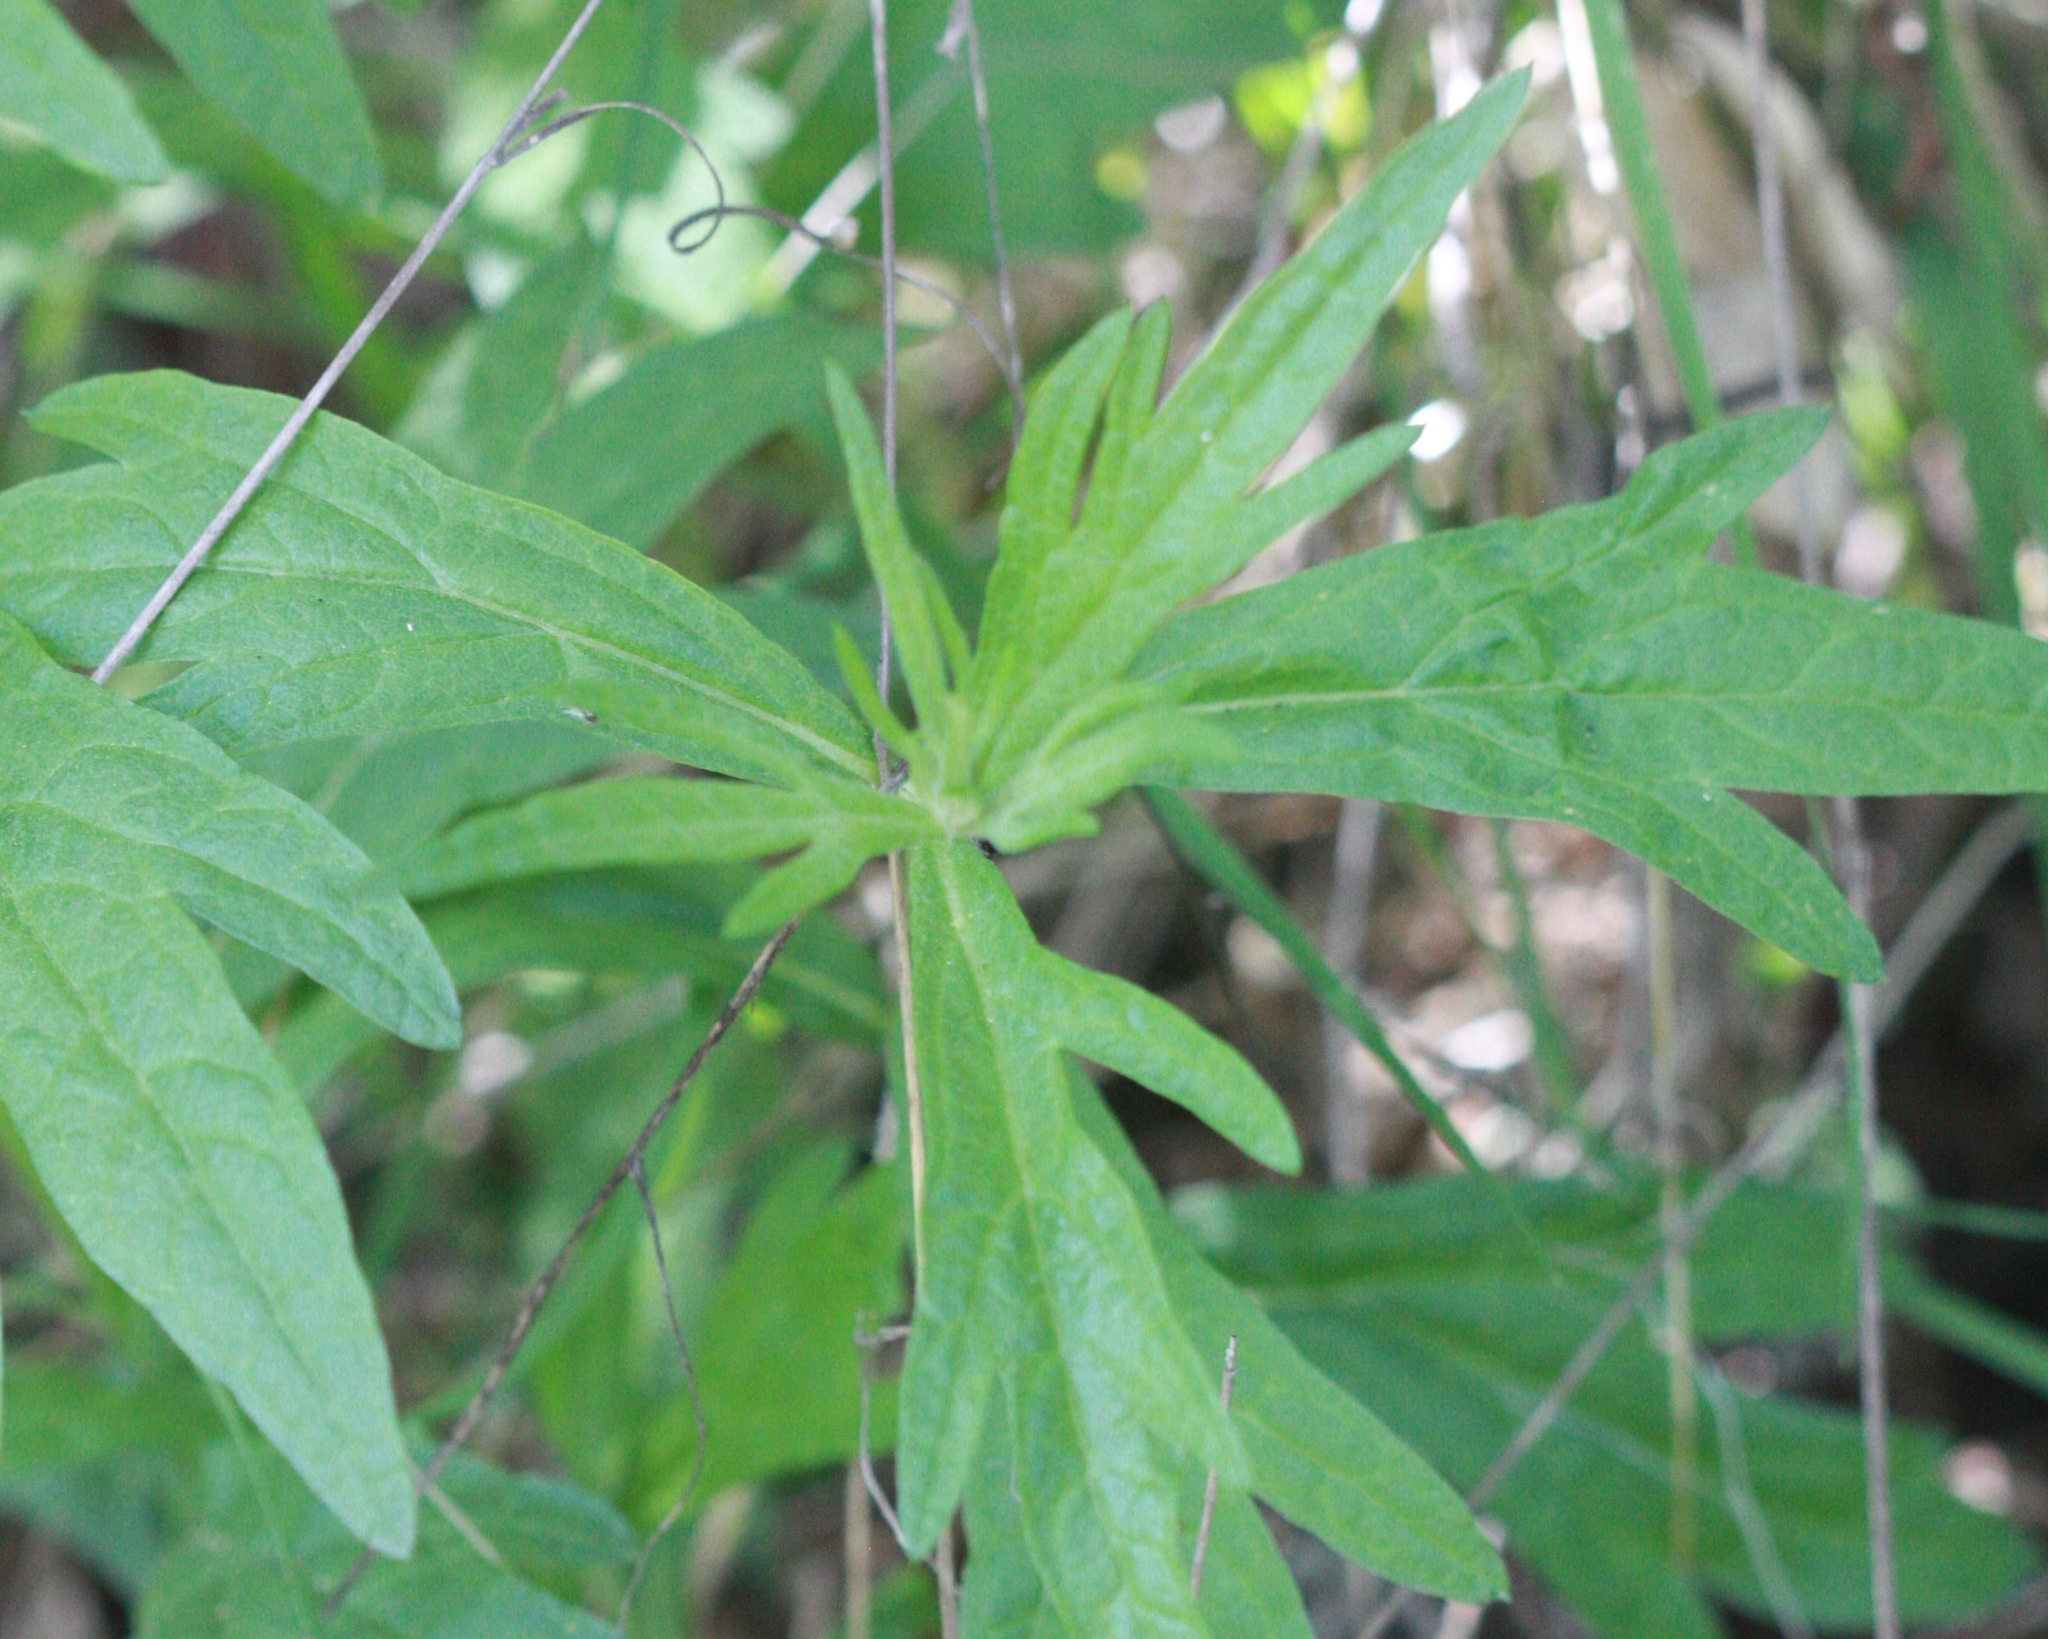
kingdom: Plantae
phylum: Tracheophyta
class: Magnoliopsida
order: Asterales
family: Asteraceae
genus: Artemisia
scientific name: Artemisia douglasiana
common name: Northwest mugwort
